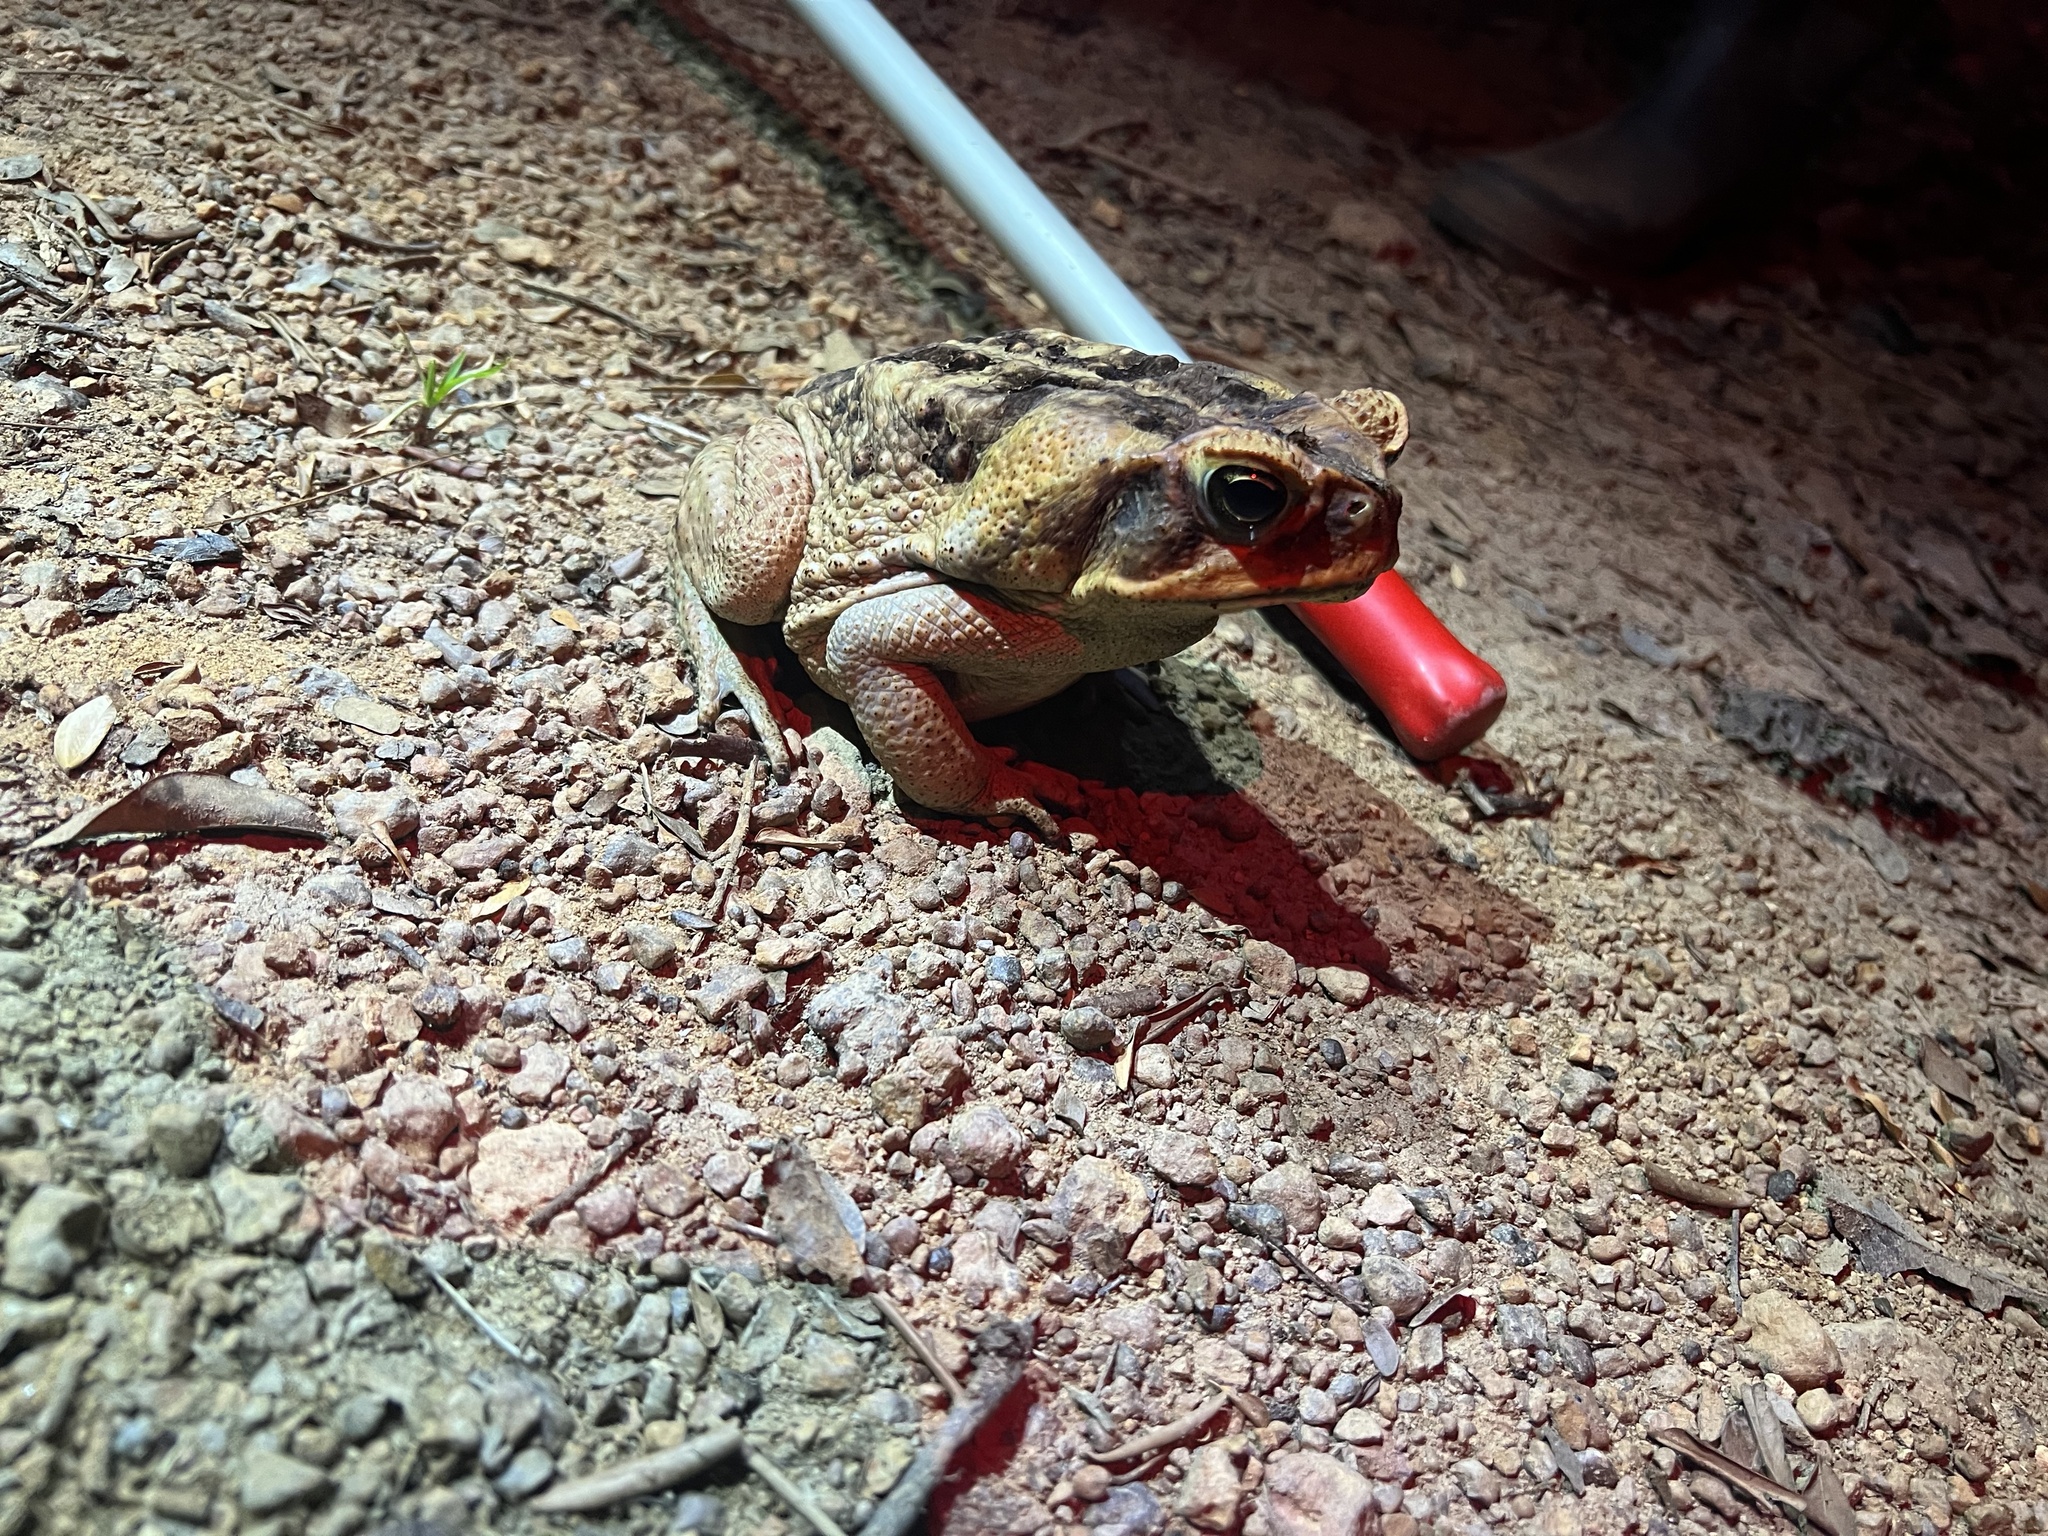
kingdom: Animalia
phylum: Chordata
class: Amphibia
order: Anura
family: Bufonidae
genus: Rhinella
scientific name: Rhinella marina
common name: Cane toad
